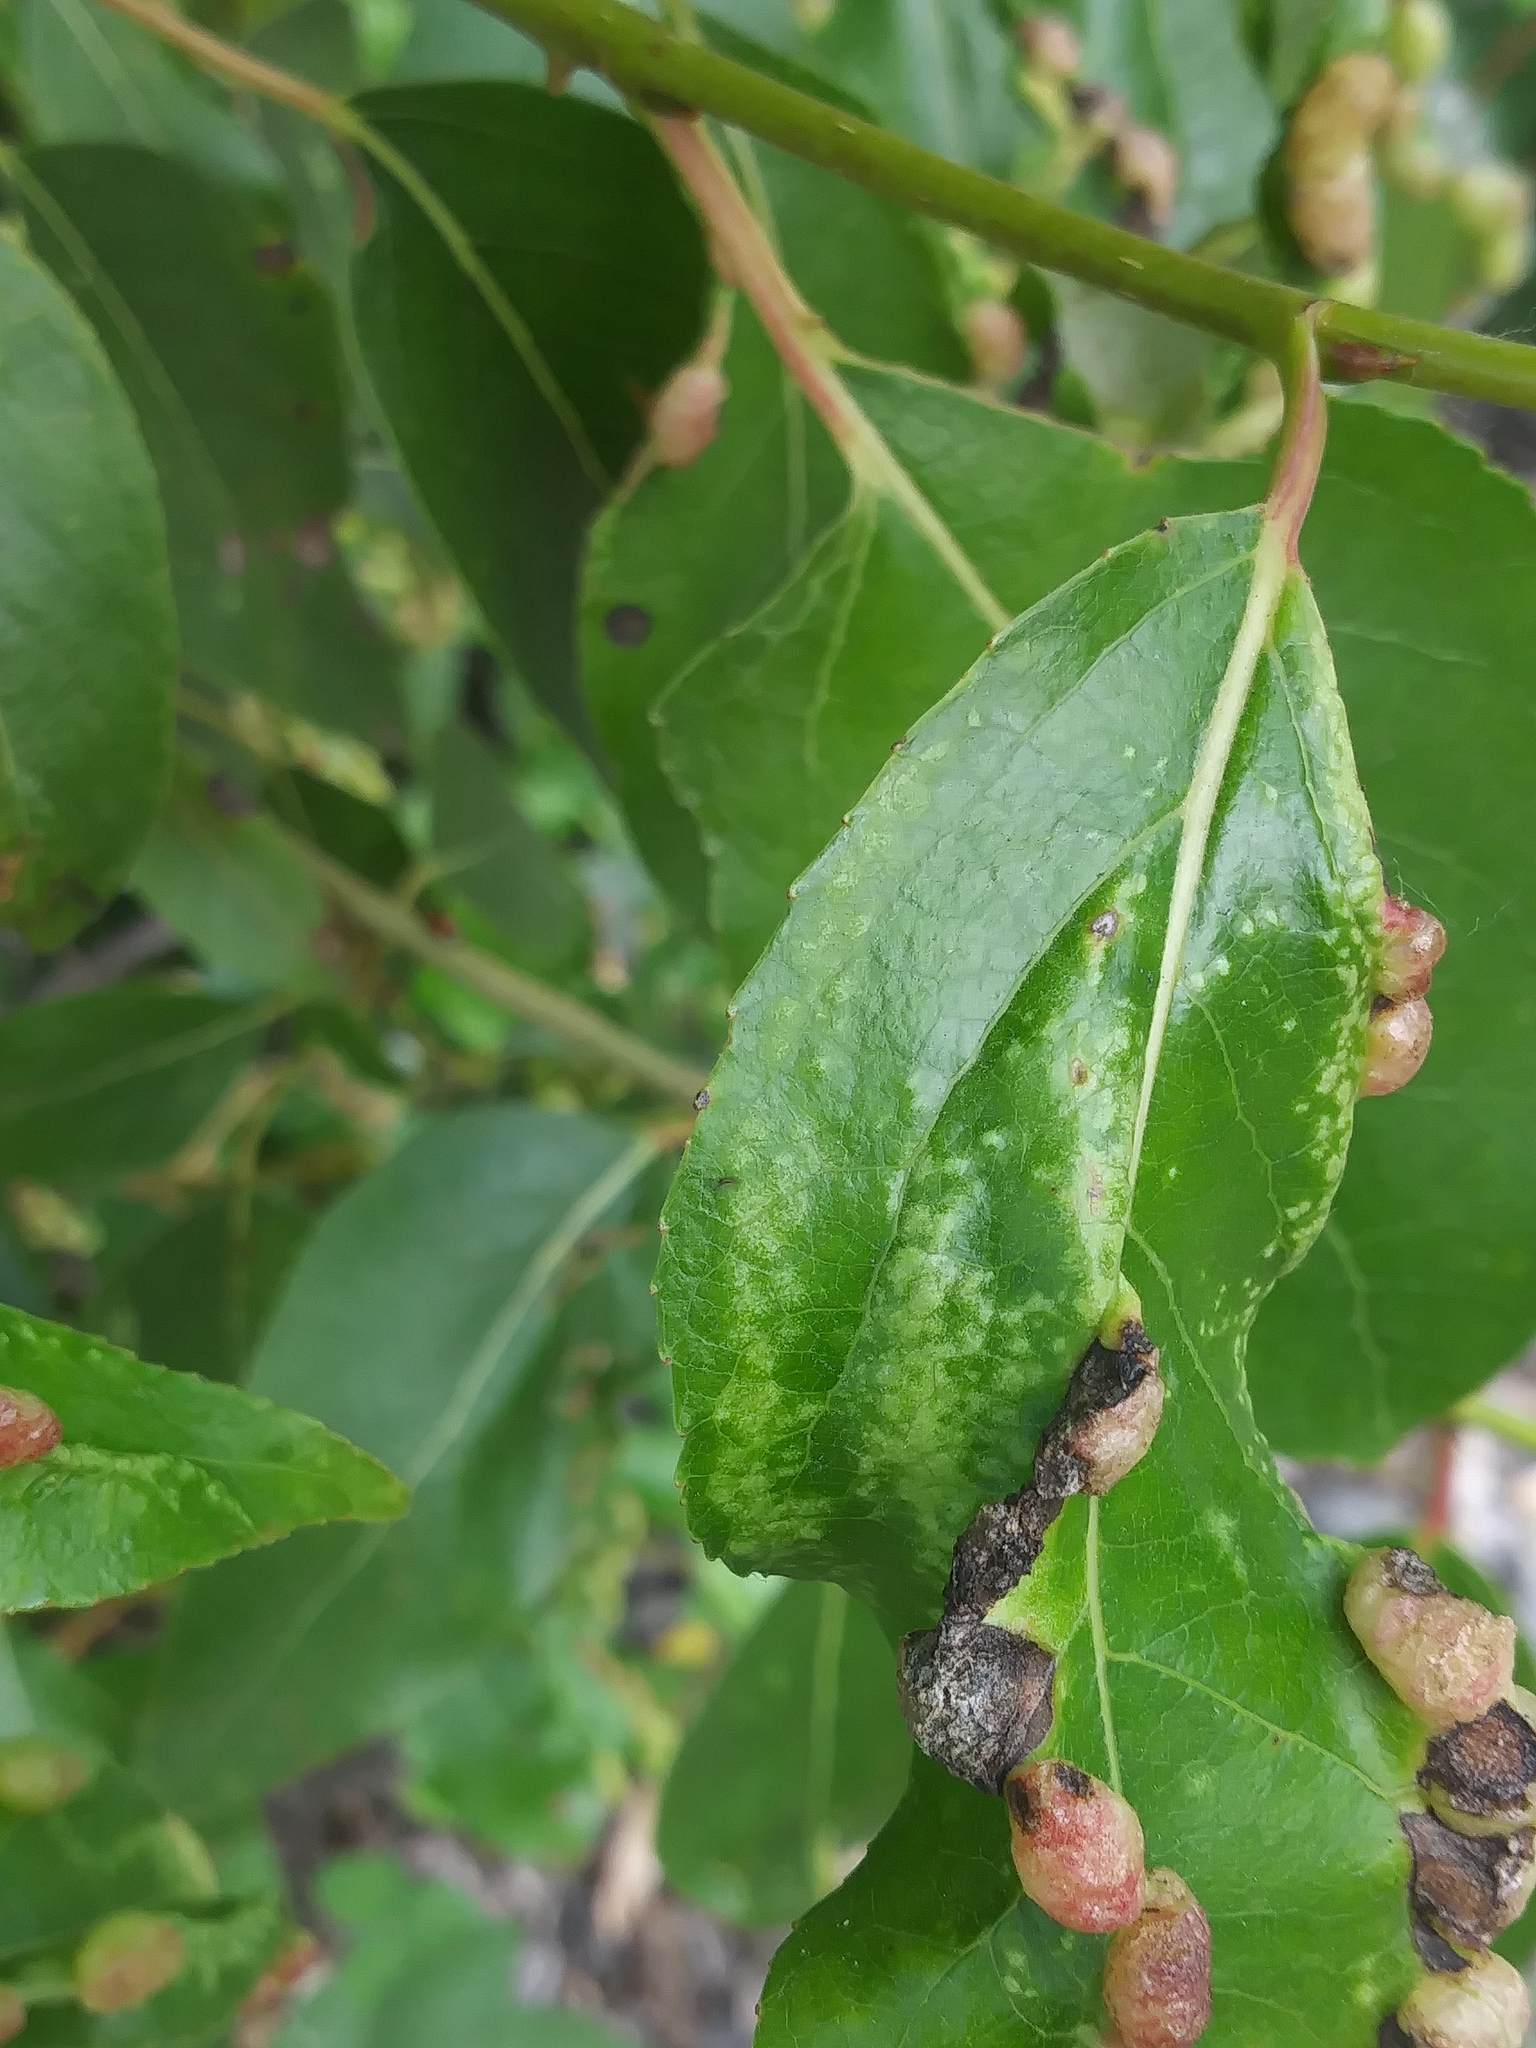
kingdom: Animalia
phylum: Arthropoda
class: Insecta
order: Hemiptera
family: Aphididae
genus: Thecabius
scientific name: Thecabius populimonilis
